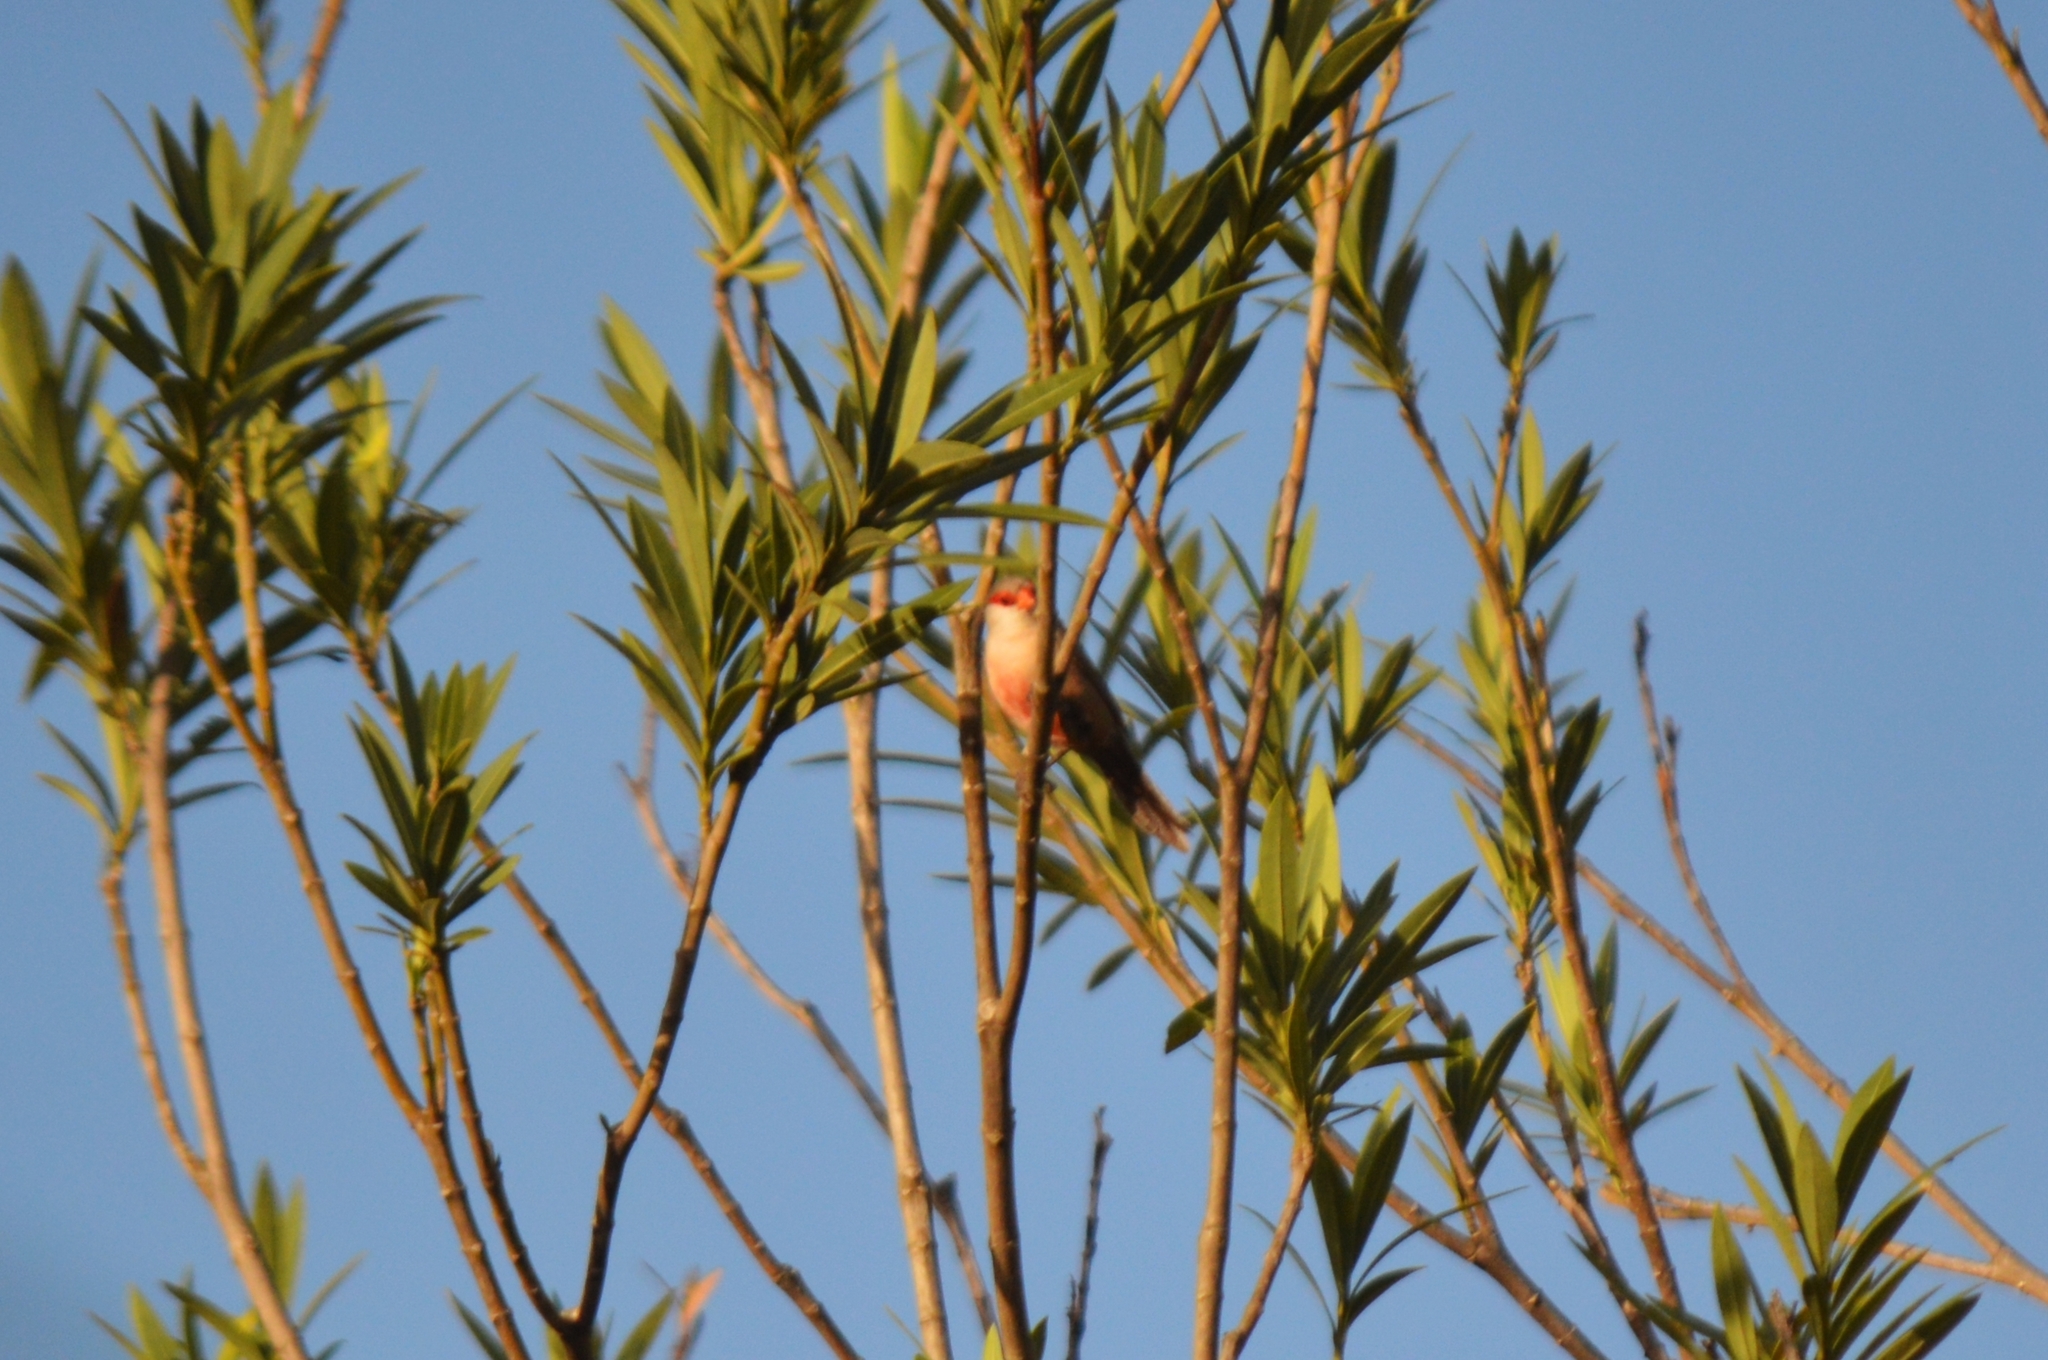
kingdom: Animalia
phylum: Chordata
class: Aves
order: Passeriformes
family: Estrildidae
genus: Estrilda
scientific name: Estrilda astrild
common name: Common waxbill
